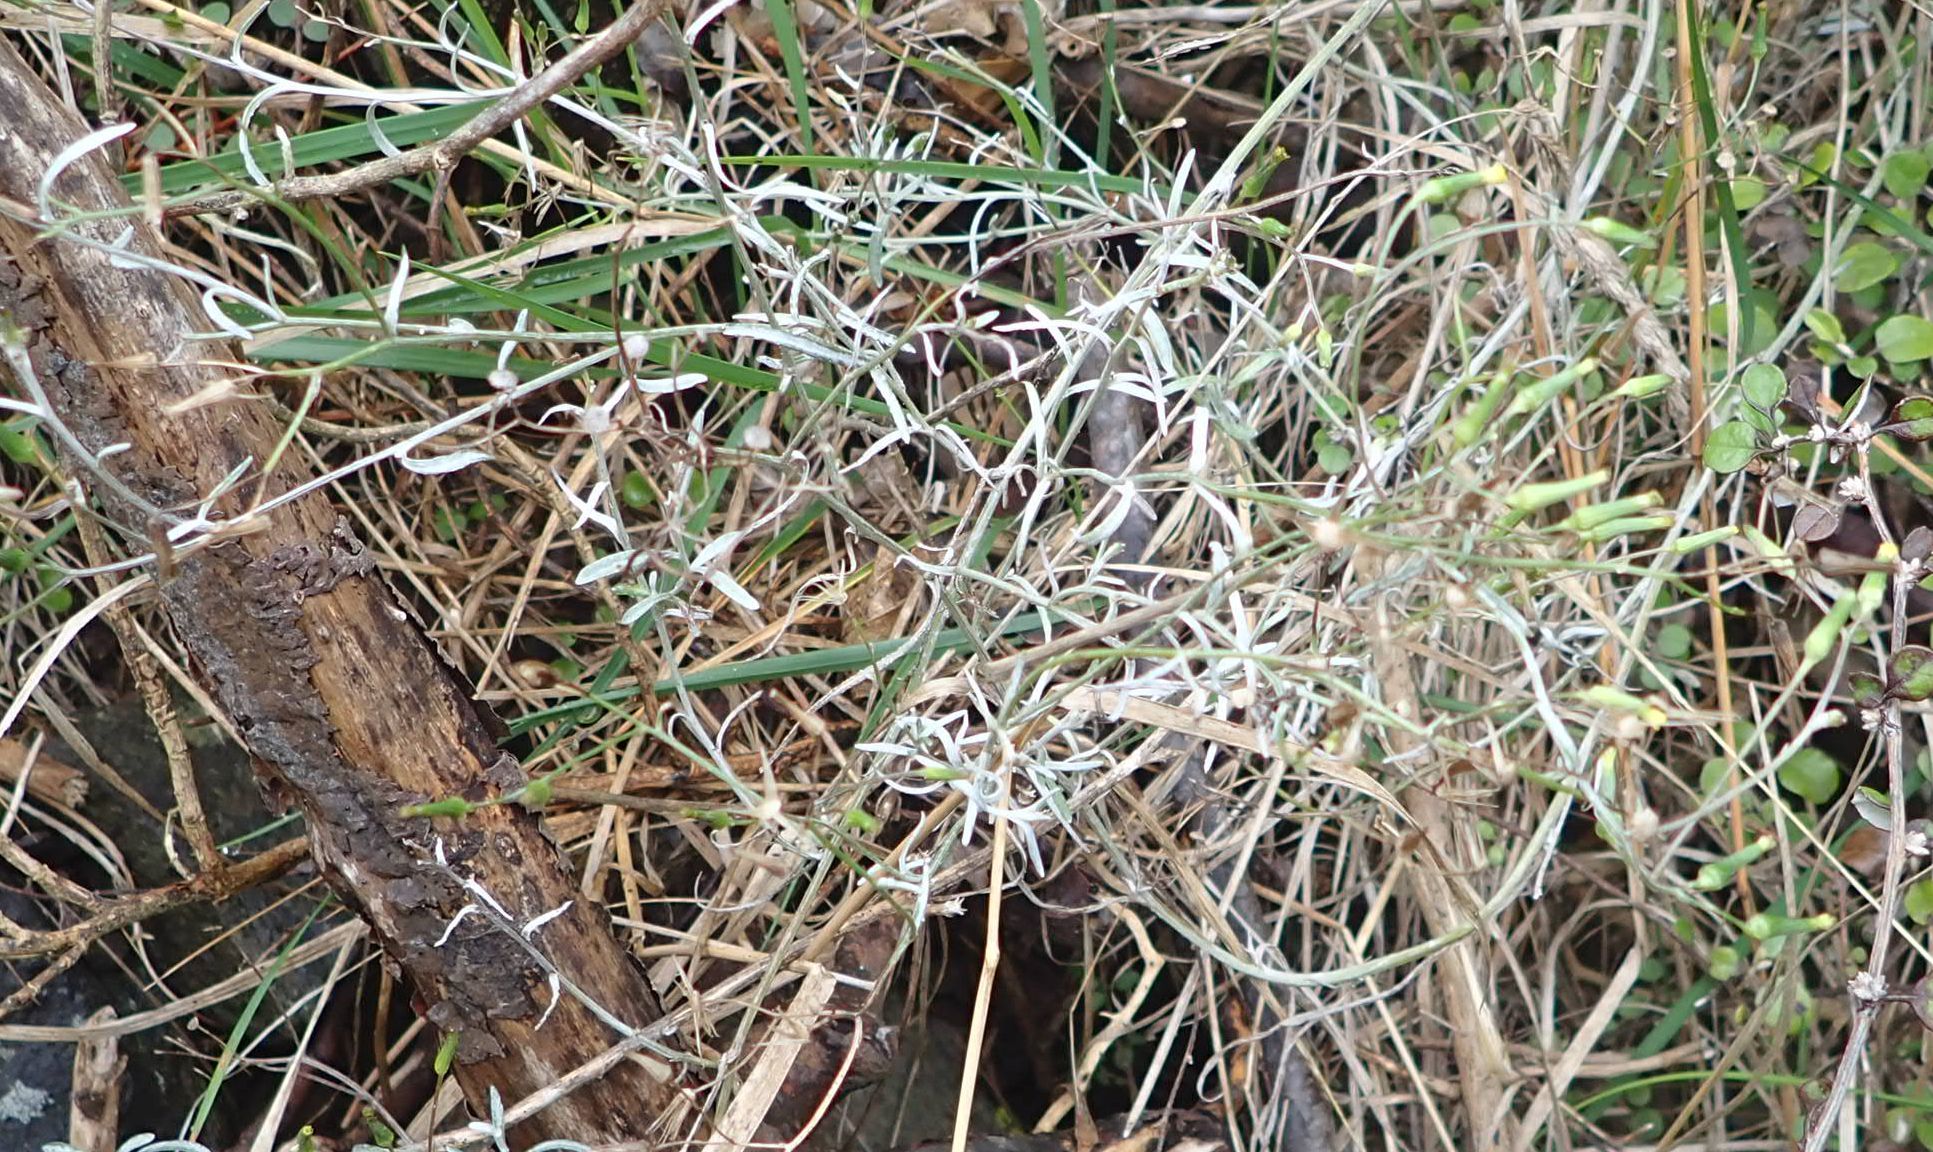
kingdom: Plantae
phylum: Tracheophyta
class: Magnoliopsida
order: Asterales
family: Asteraceae
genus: Senecio
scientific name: Senecio quadridentatus
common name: Cotton fireweed
